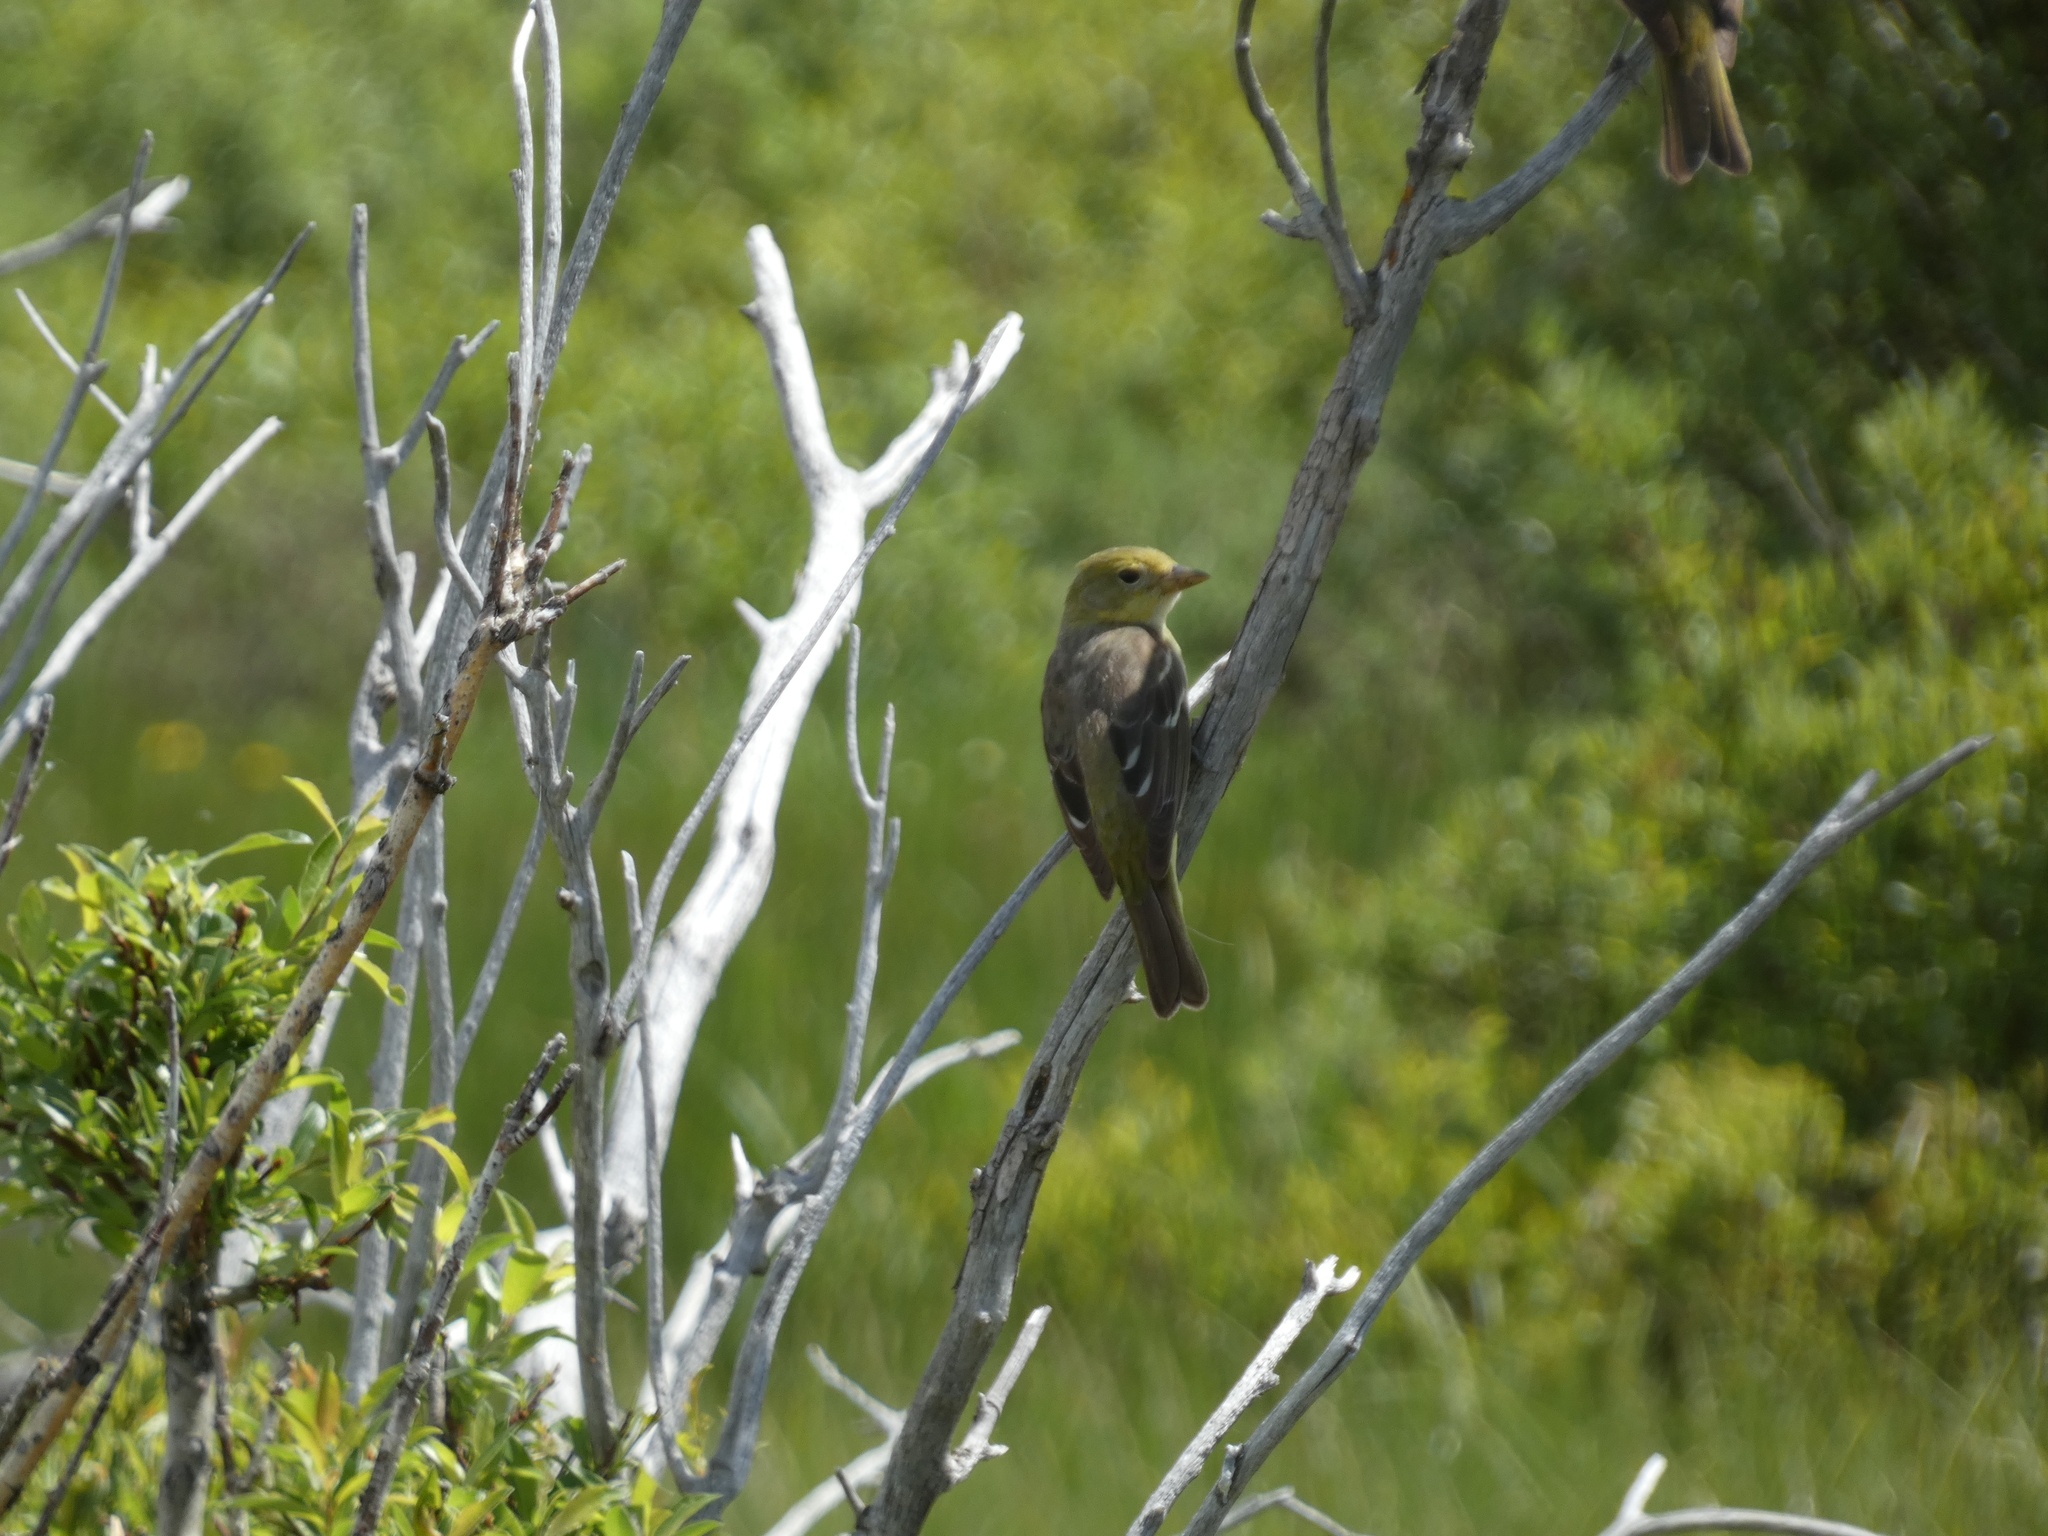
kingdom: Animalia
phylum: Chordata
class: Aves
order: Passeriformes
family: Cardinalidae
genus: Piranga
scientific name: Piranga ludoviciana
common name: Western tanager
